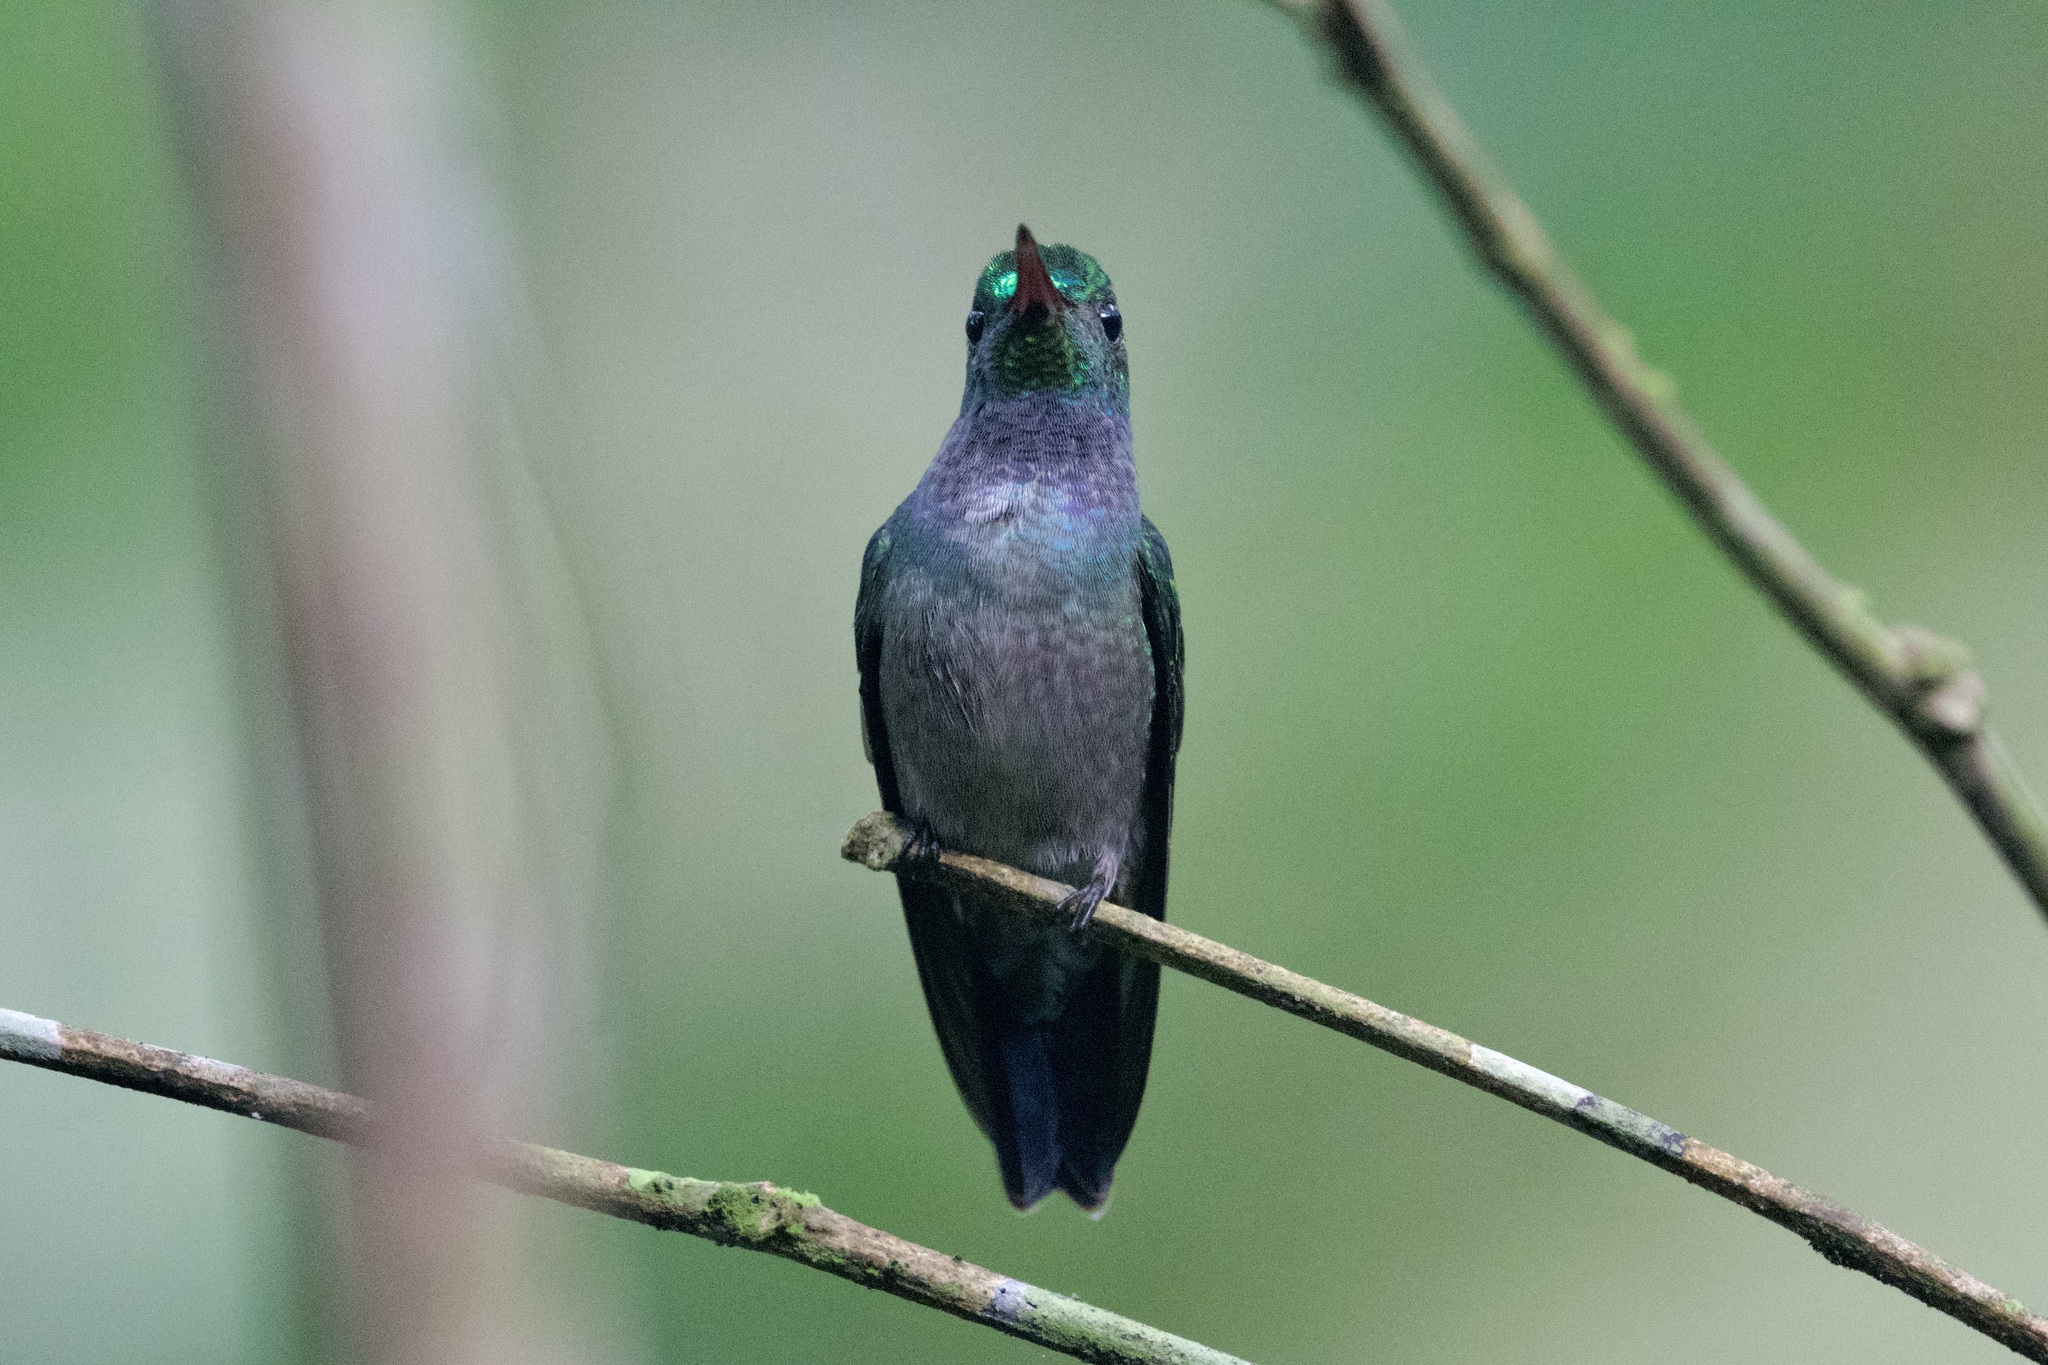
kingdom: Animalia
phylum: Chordata
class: Aves
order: Apodiformes
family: Trochilidae
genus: Polyerata
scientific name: Polyerata amabilis
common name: Blue-chested hummingbird
